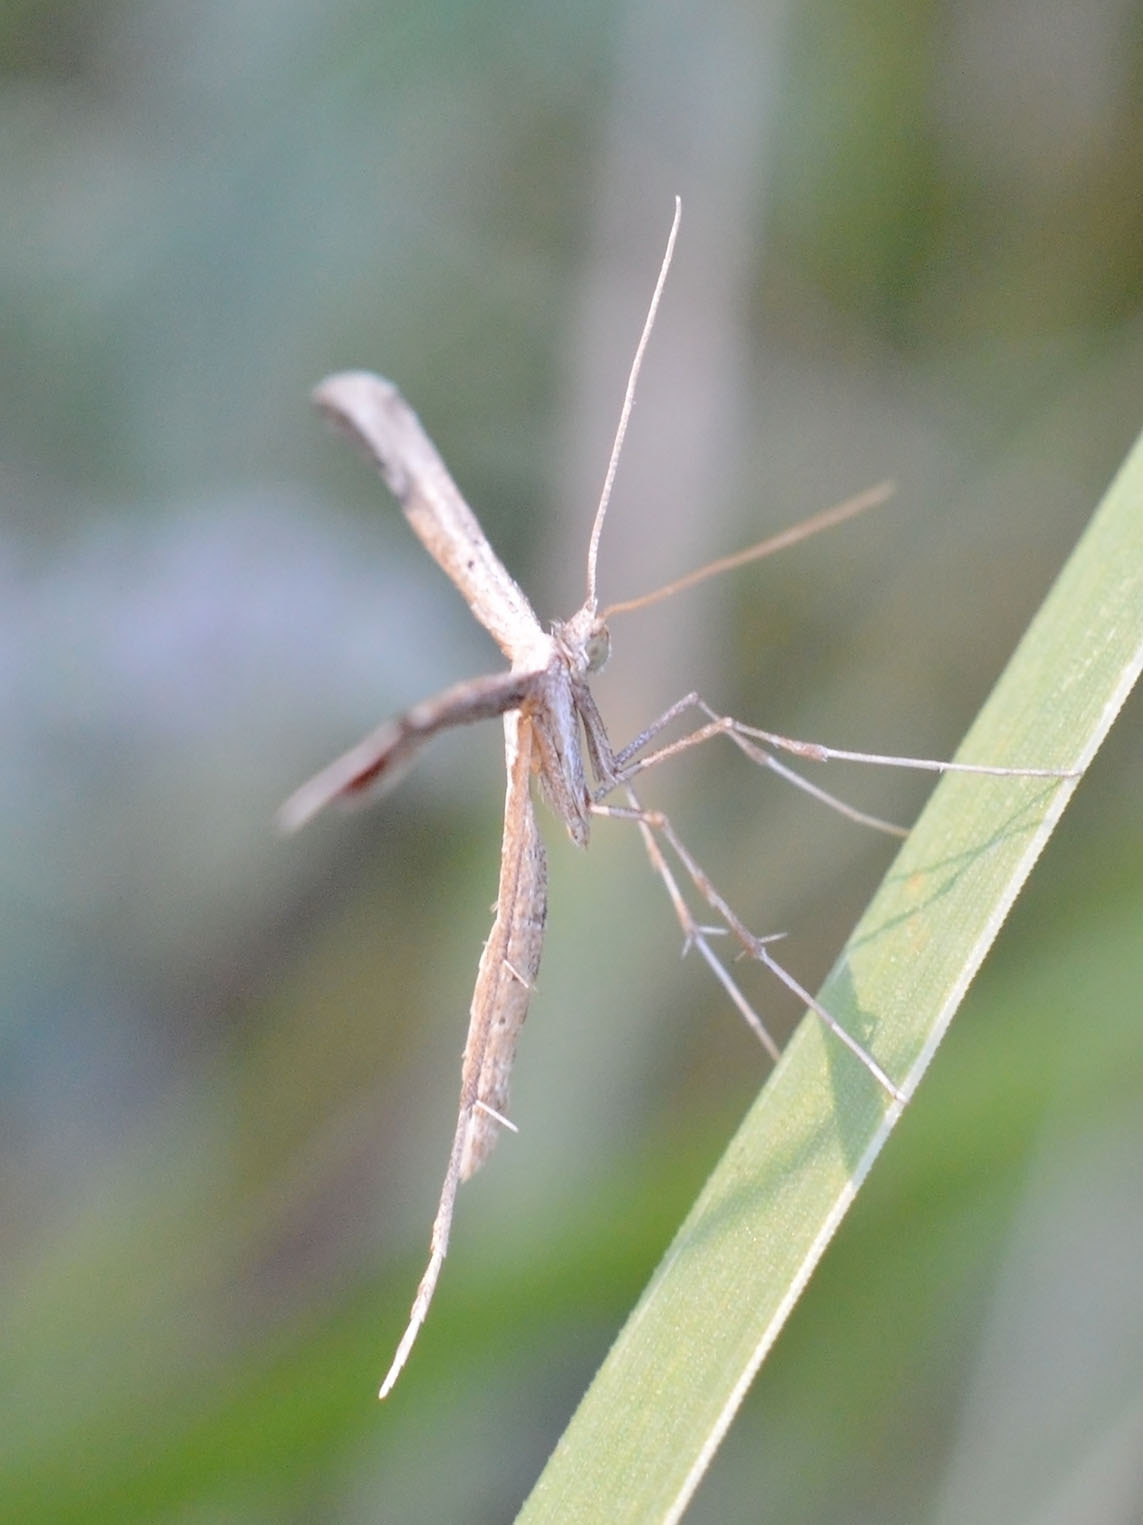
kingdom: Animalia
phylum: Arthropoda
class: Insecta
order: Lepidoptera
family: Pterophoridae
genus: Emmelina
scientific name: Emmelina monodactyla
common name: Common plume
